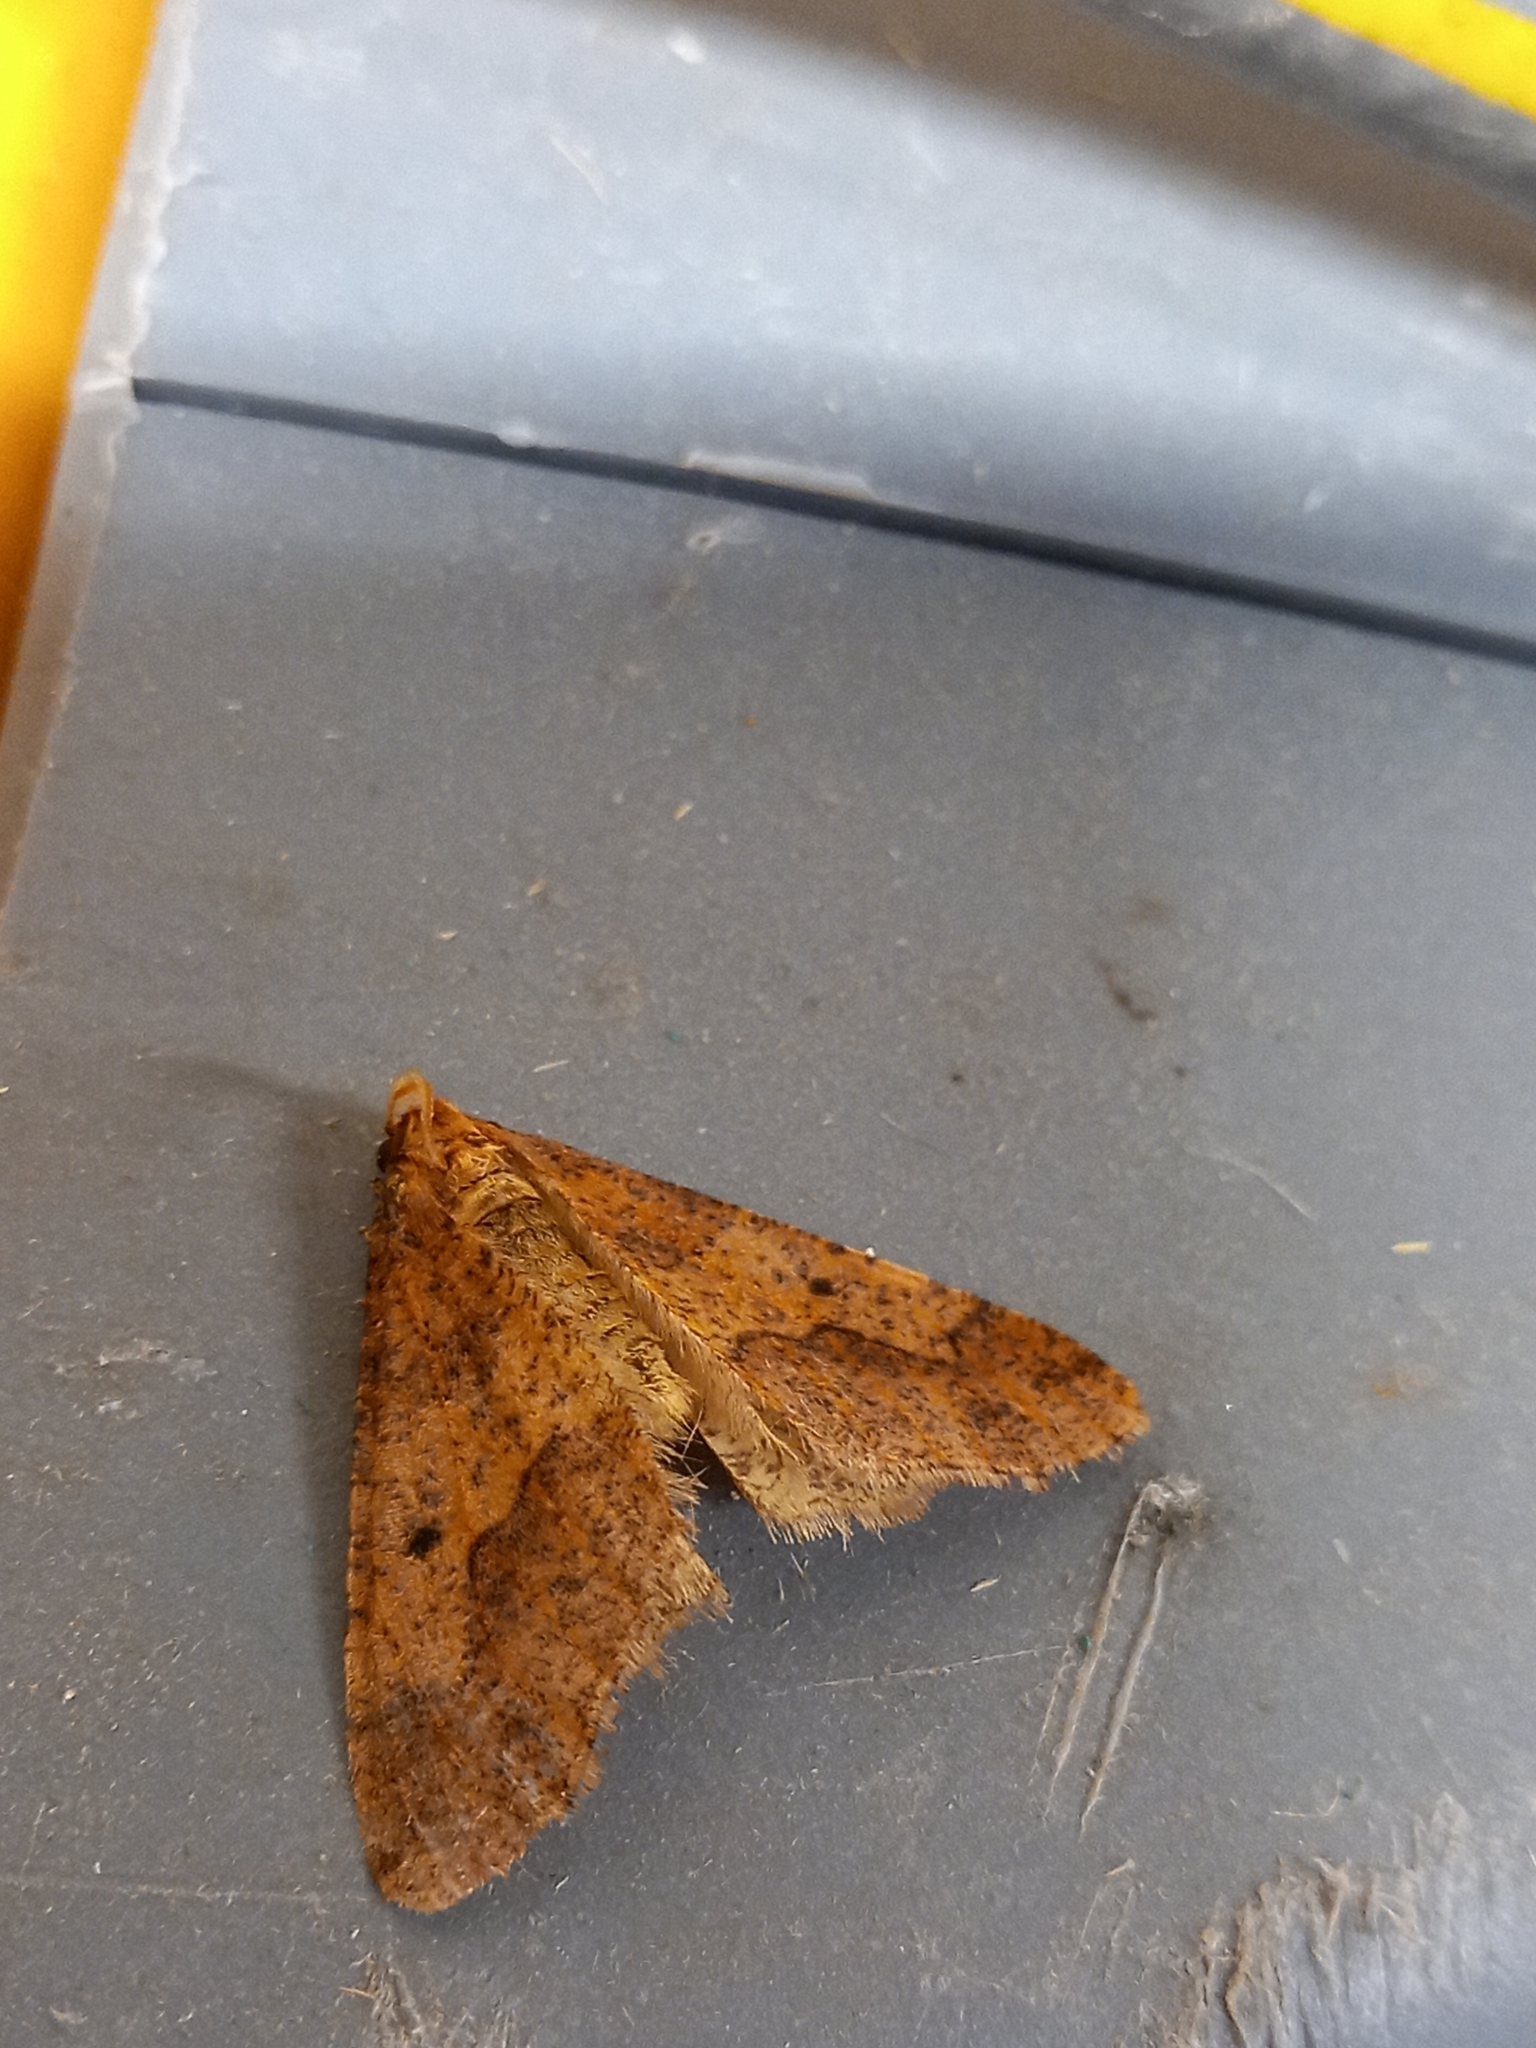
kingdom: Animalia
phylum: Arthropoda
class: Insecta
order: Lepidoptera
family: Geometridae
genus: Erannis
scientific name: Erannis defoliaria
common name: Mottled umber
